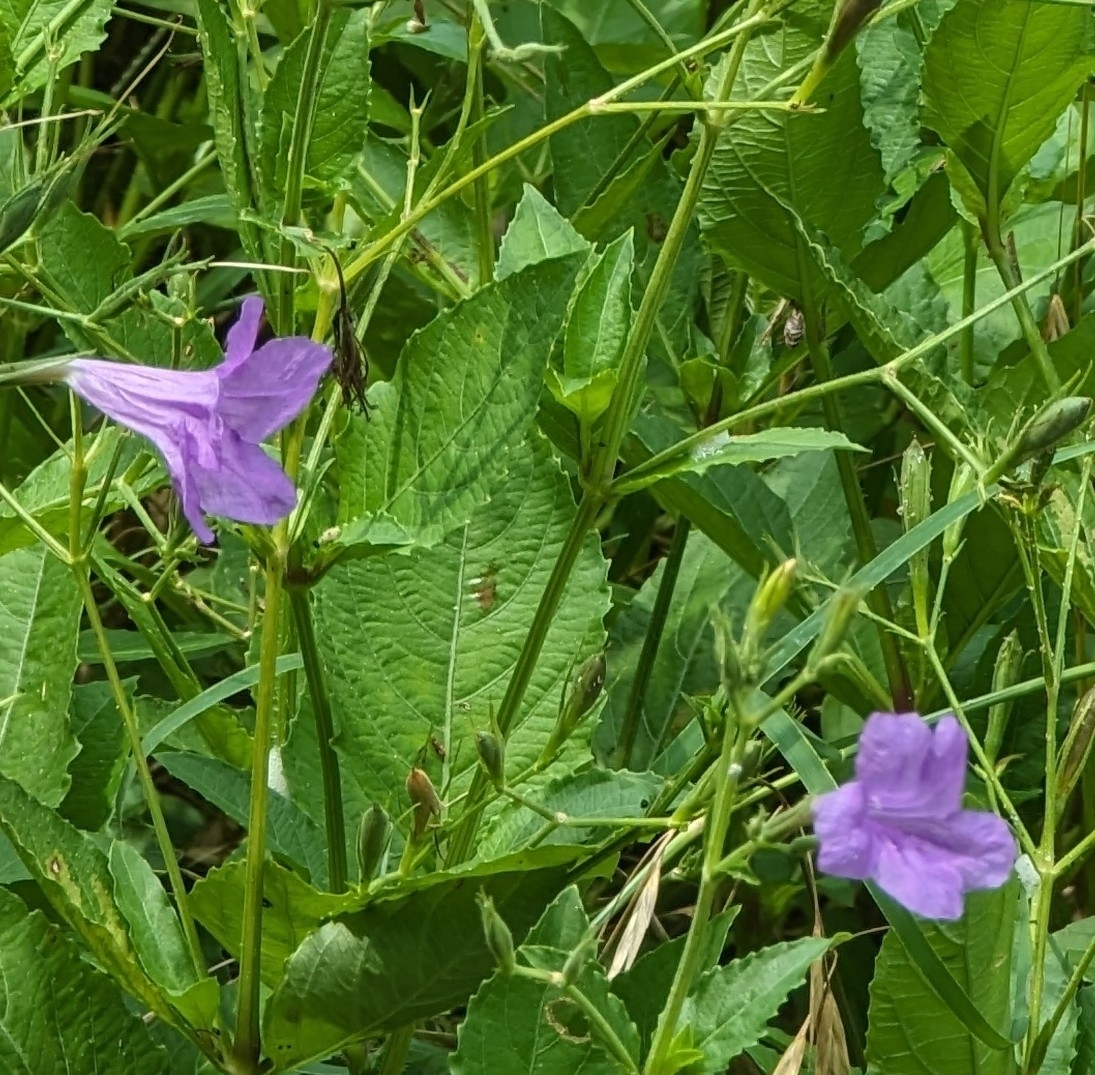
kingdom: Plantae
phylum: Tracheophyta
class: Magnoliopsida
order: Lamiales
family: Acanthaceae
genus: Ruellia
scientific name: Ruellia ciliatiflora
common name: Hairyflower wild petunia
